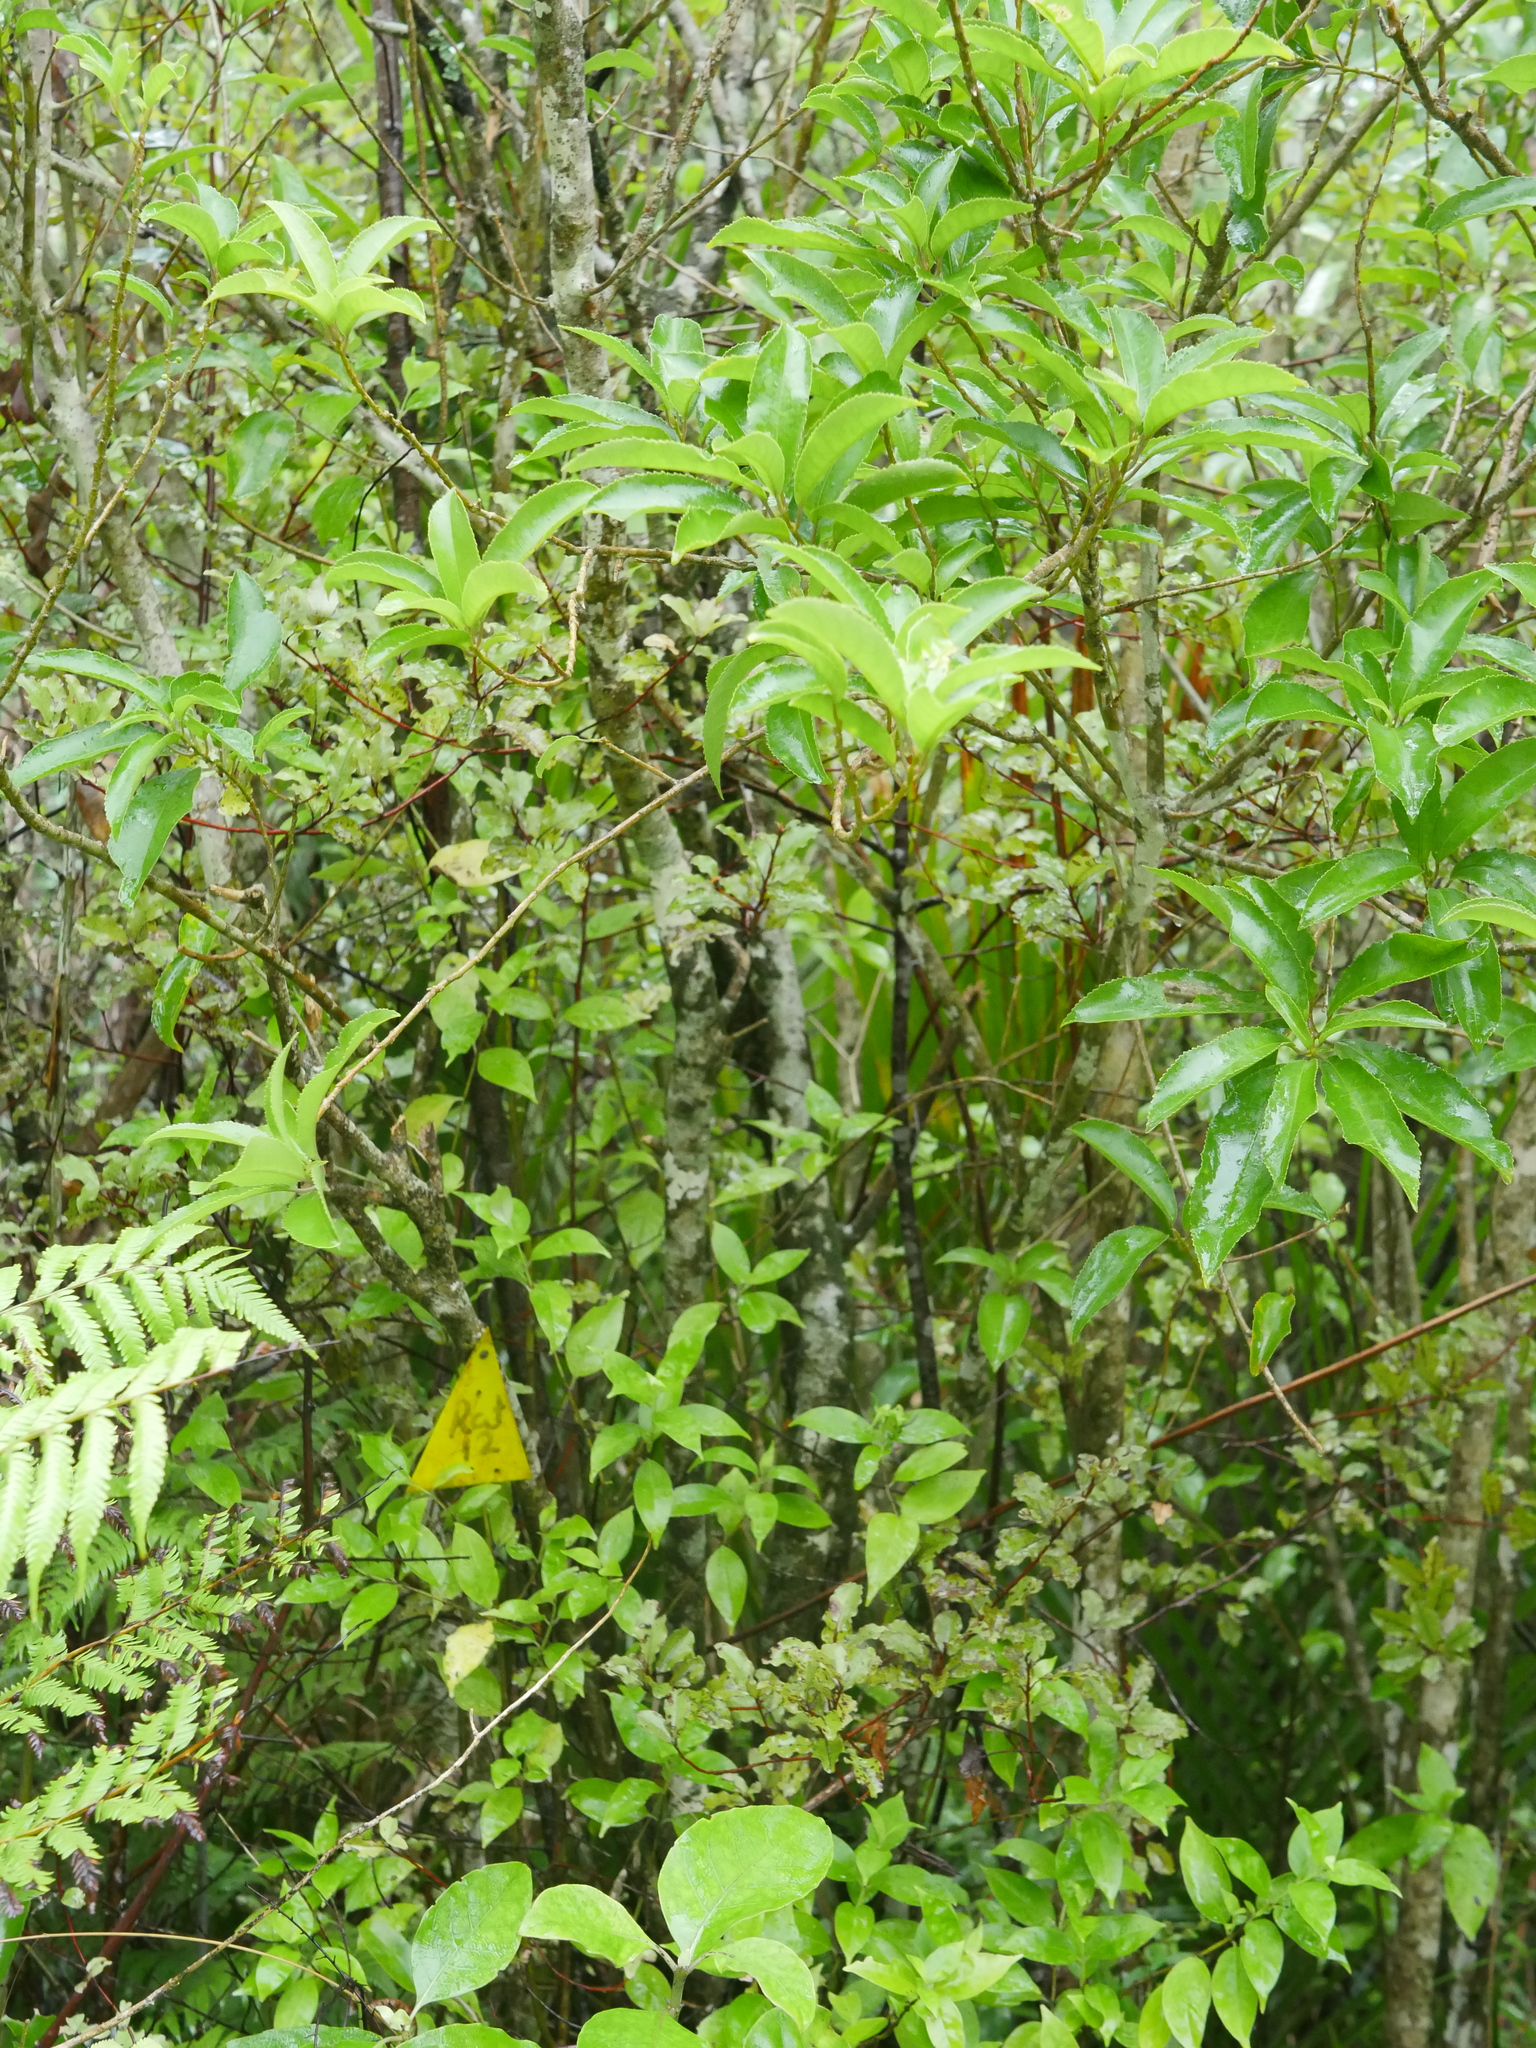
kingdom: Plantae
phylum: Tracheophyta
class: Magnoliopsida
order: Ericales
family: Primulaceae
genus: Myrsine
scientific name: Myrsine australis
